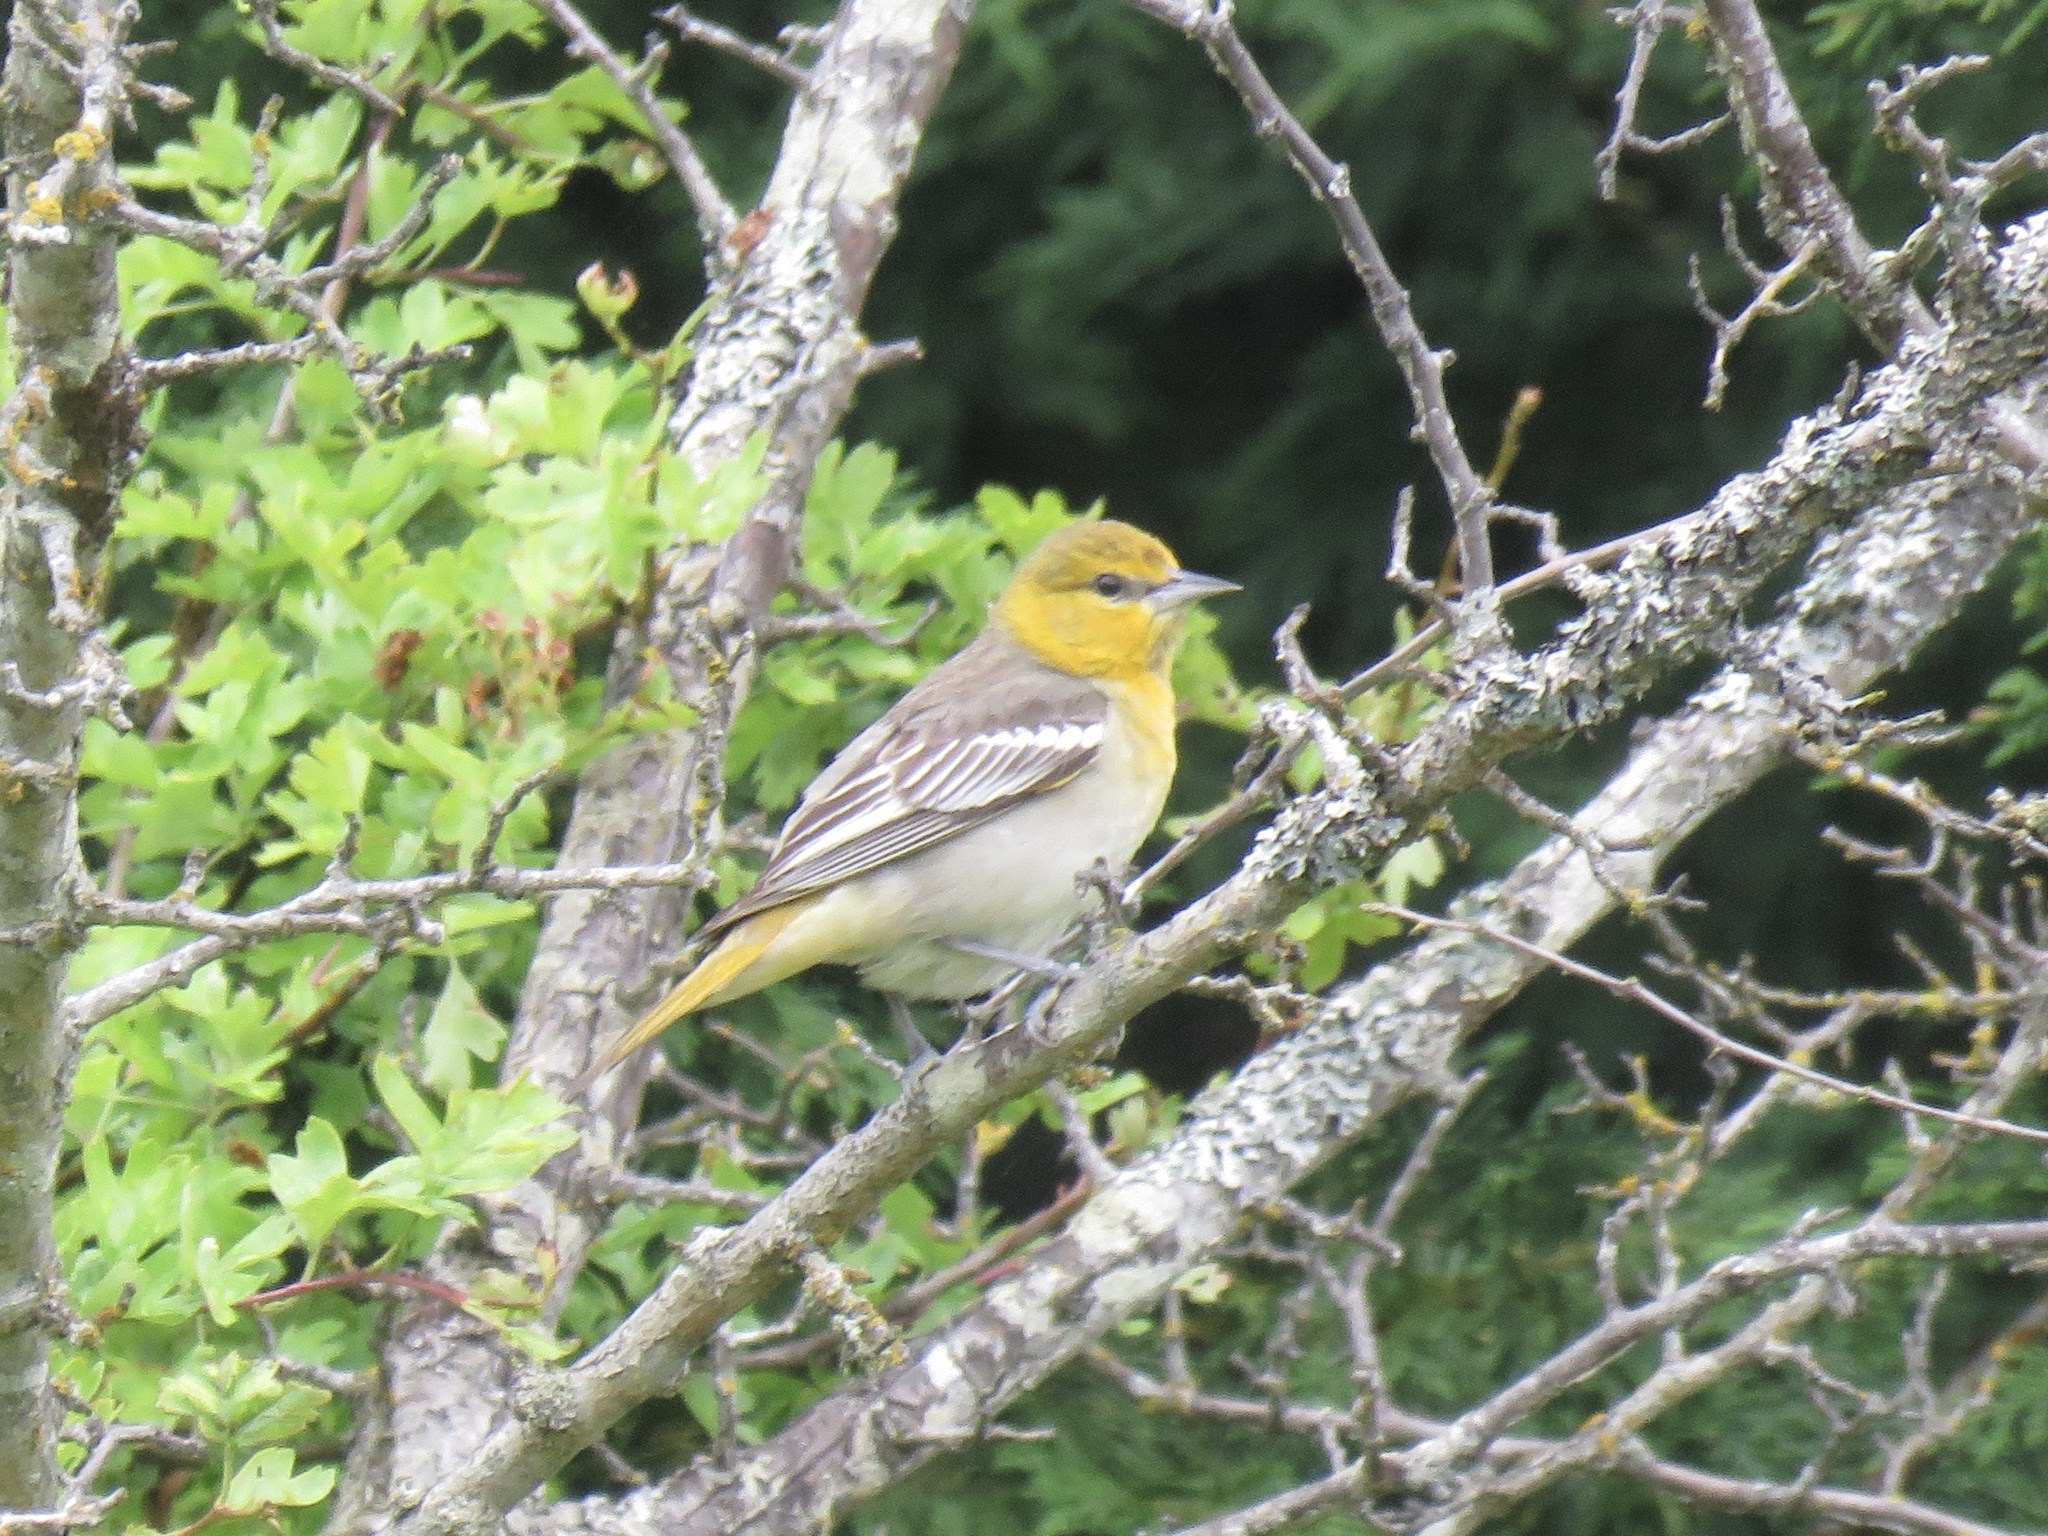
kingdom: Animalia
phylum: Chordata
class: Aves
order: Passeriformes
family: Icteridae
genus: Icterus
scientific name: Icterus bullockii
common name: Bullock's oriole
